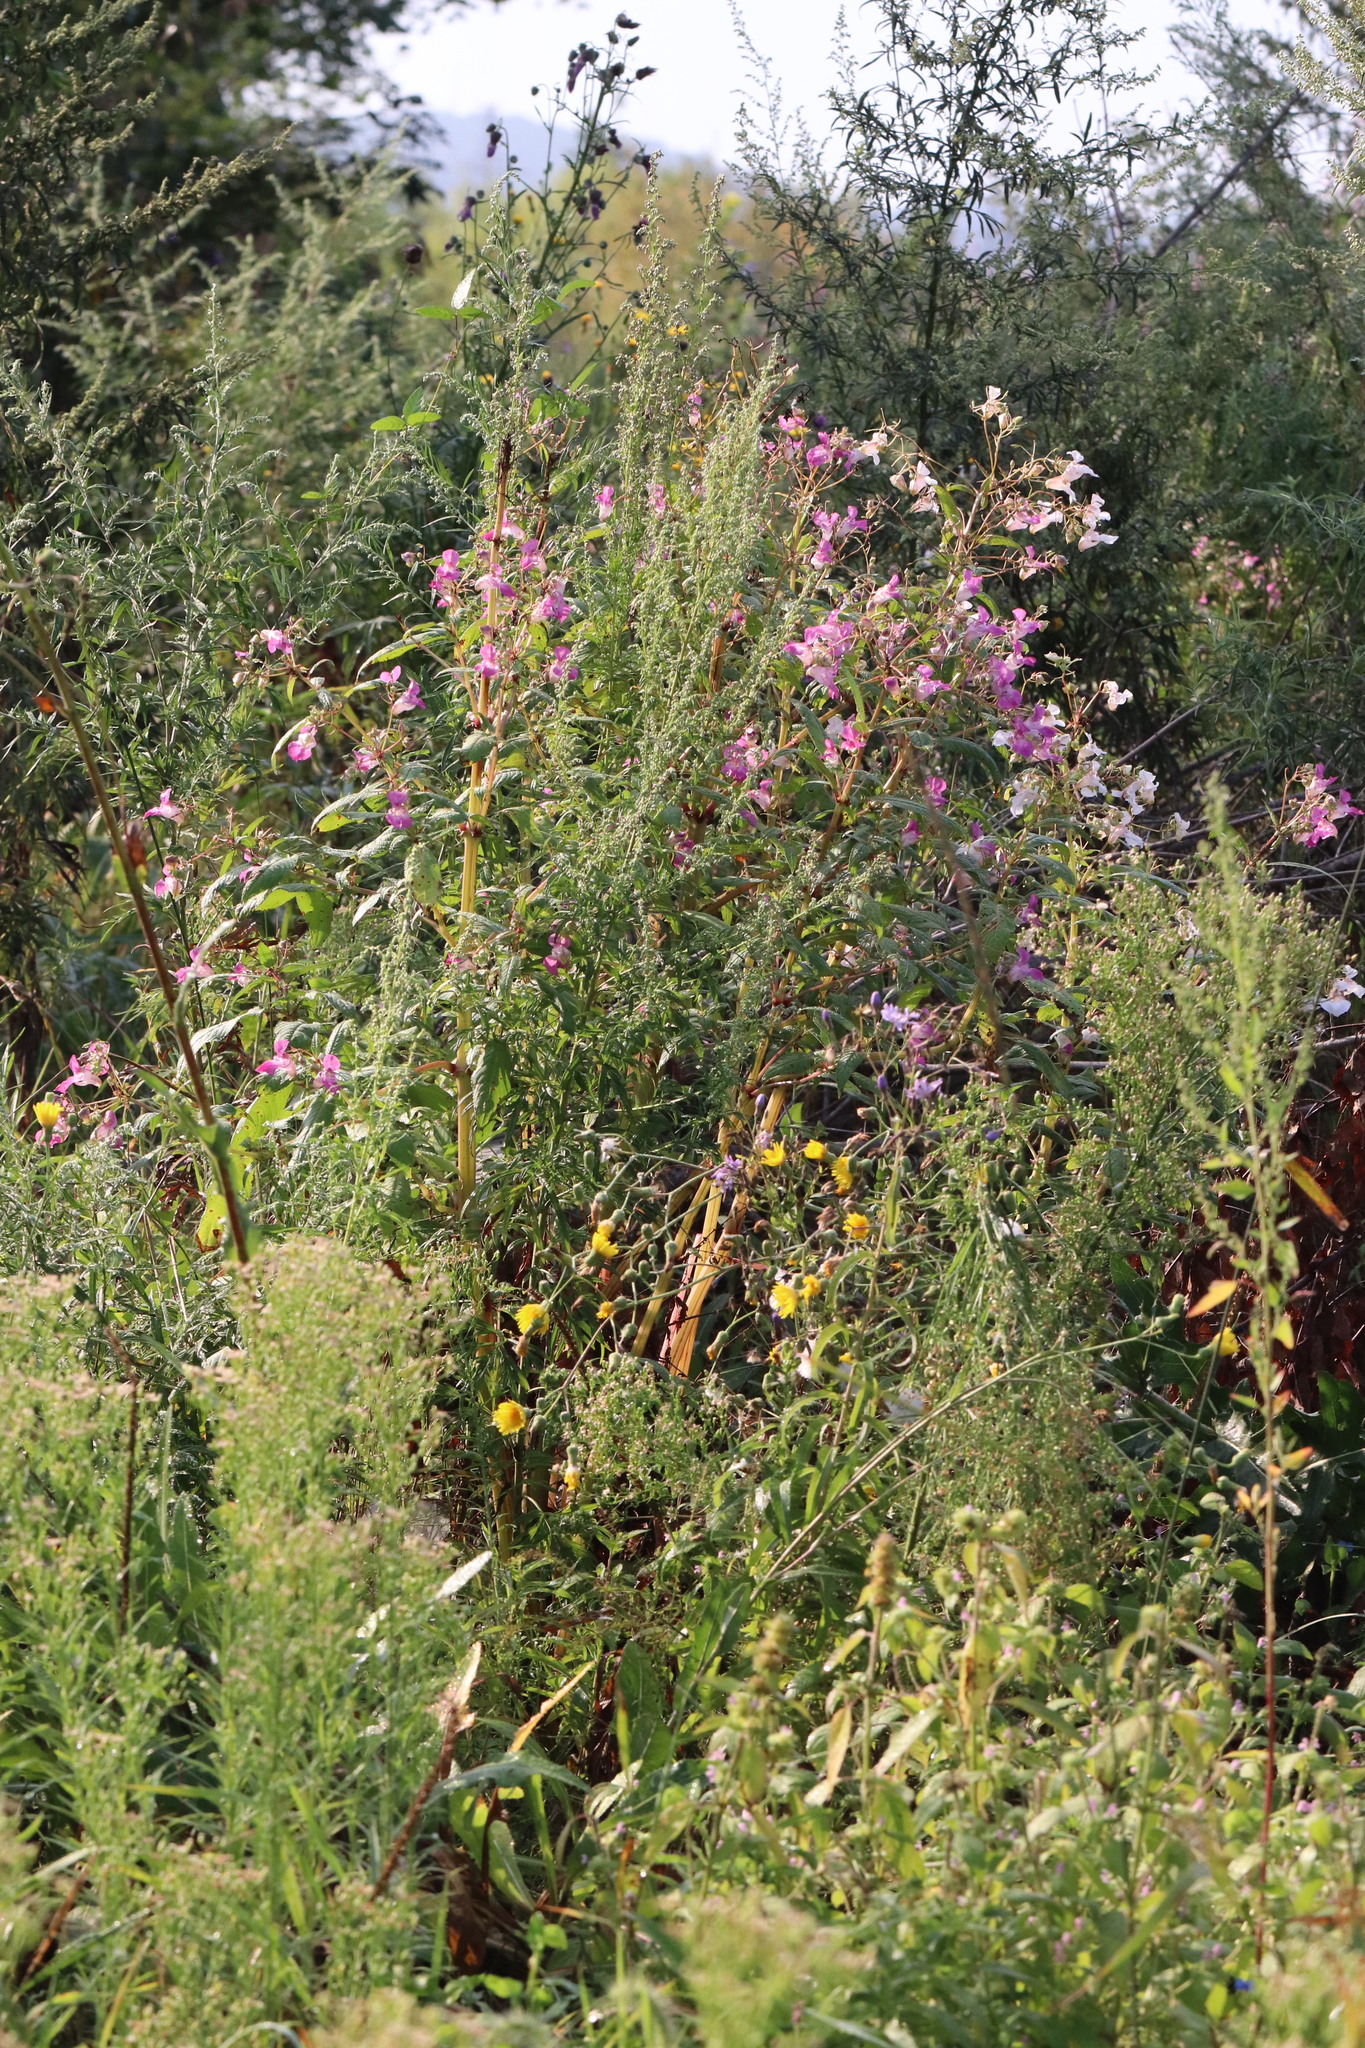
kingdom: Plantae
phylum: Tracheophyta
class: Magnoliopsida
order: Ericales
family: Balsaminaceae
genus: Impatiens
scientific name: Impatiens glandulifera
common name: Himalayan balsam
